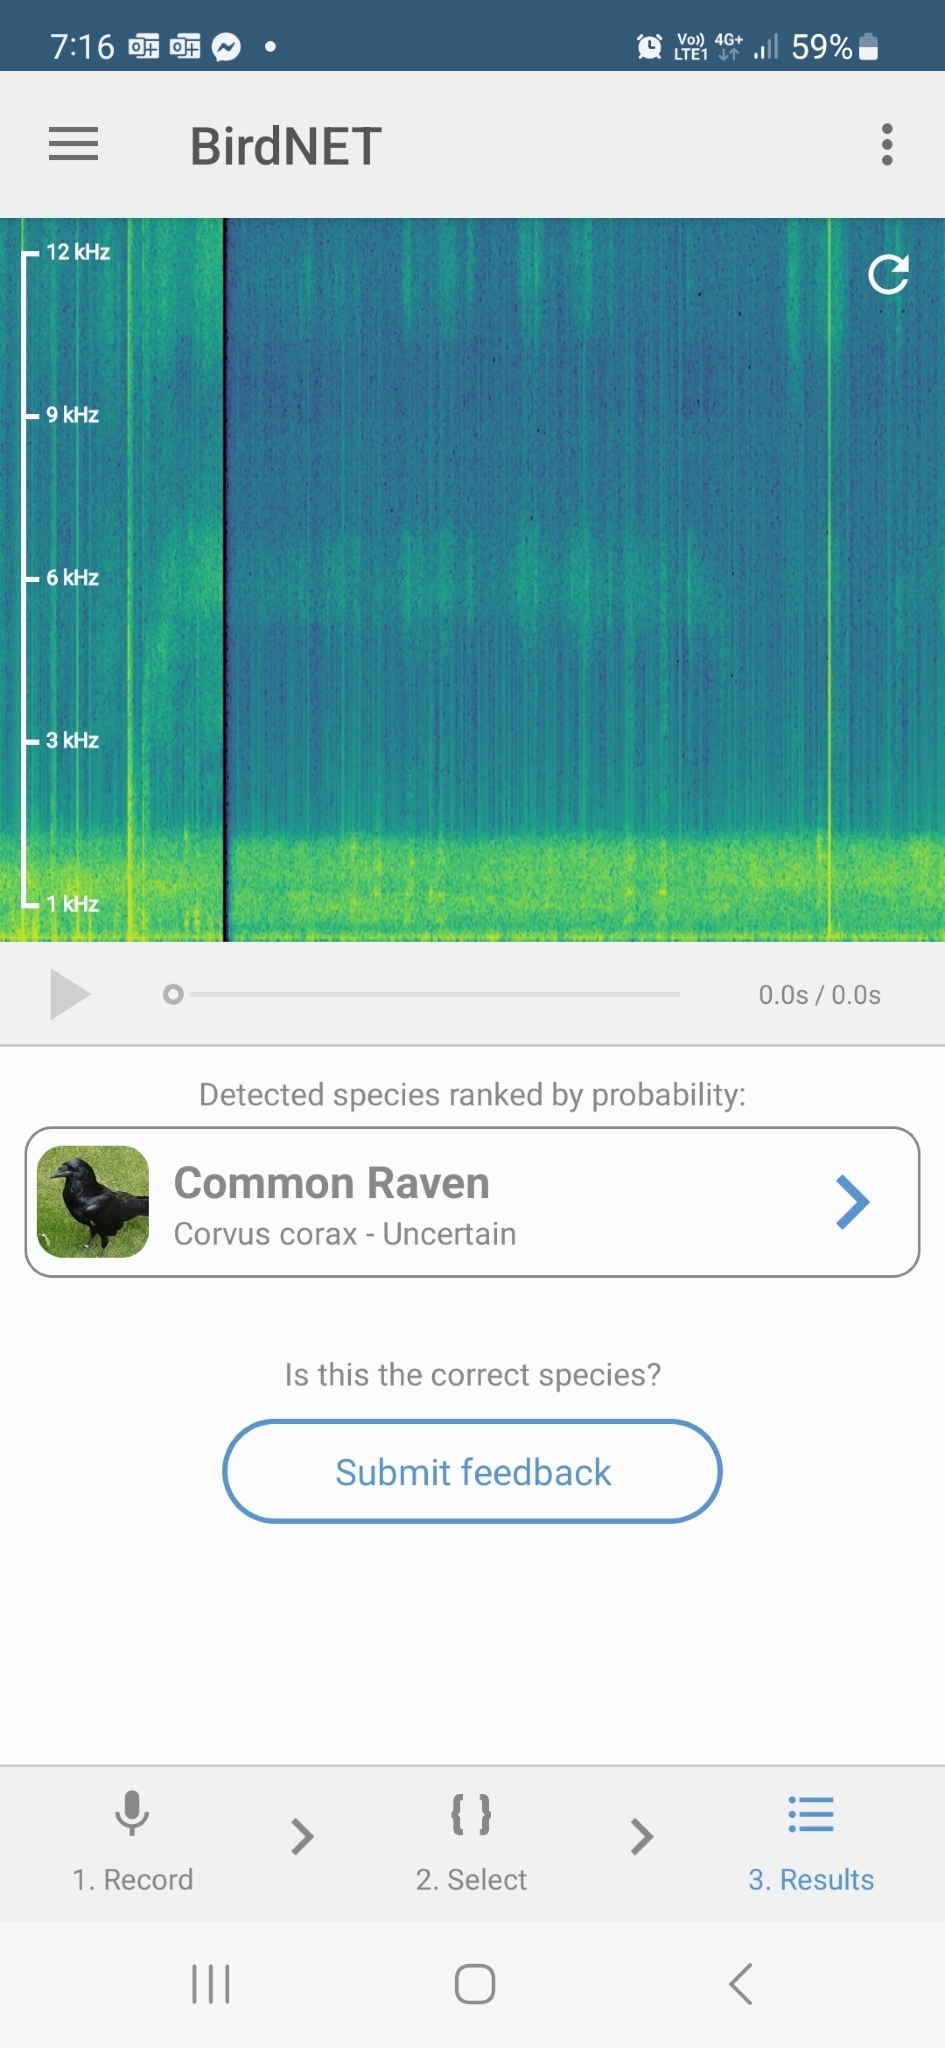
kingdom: Animalia
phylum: Chordata
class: Aves
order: Passeriformes
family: Corvidae
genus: Corvus
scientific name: Corvus corax
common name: Common raven
